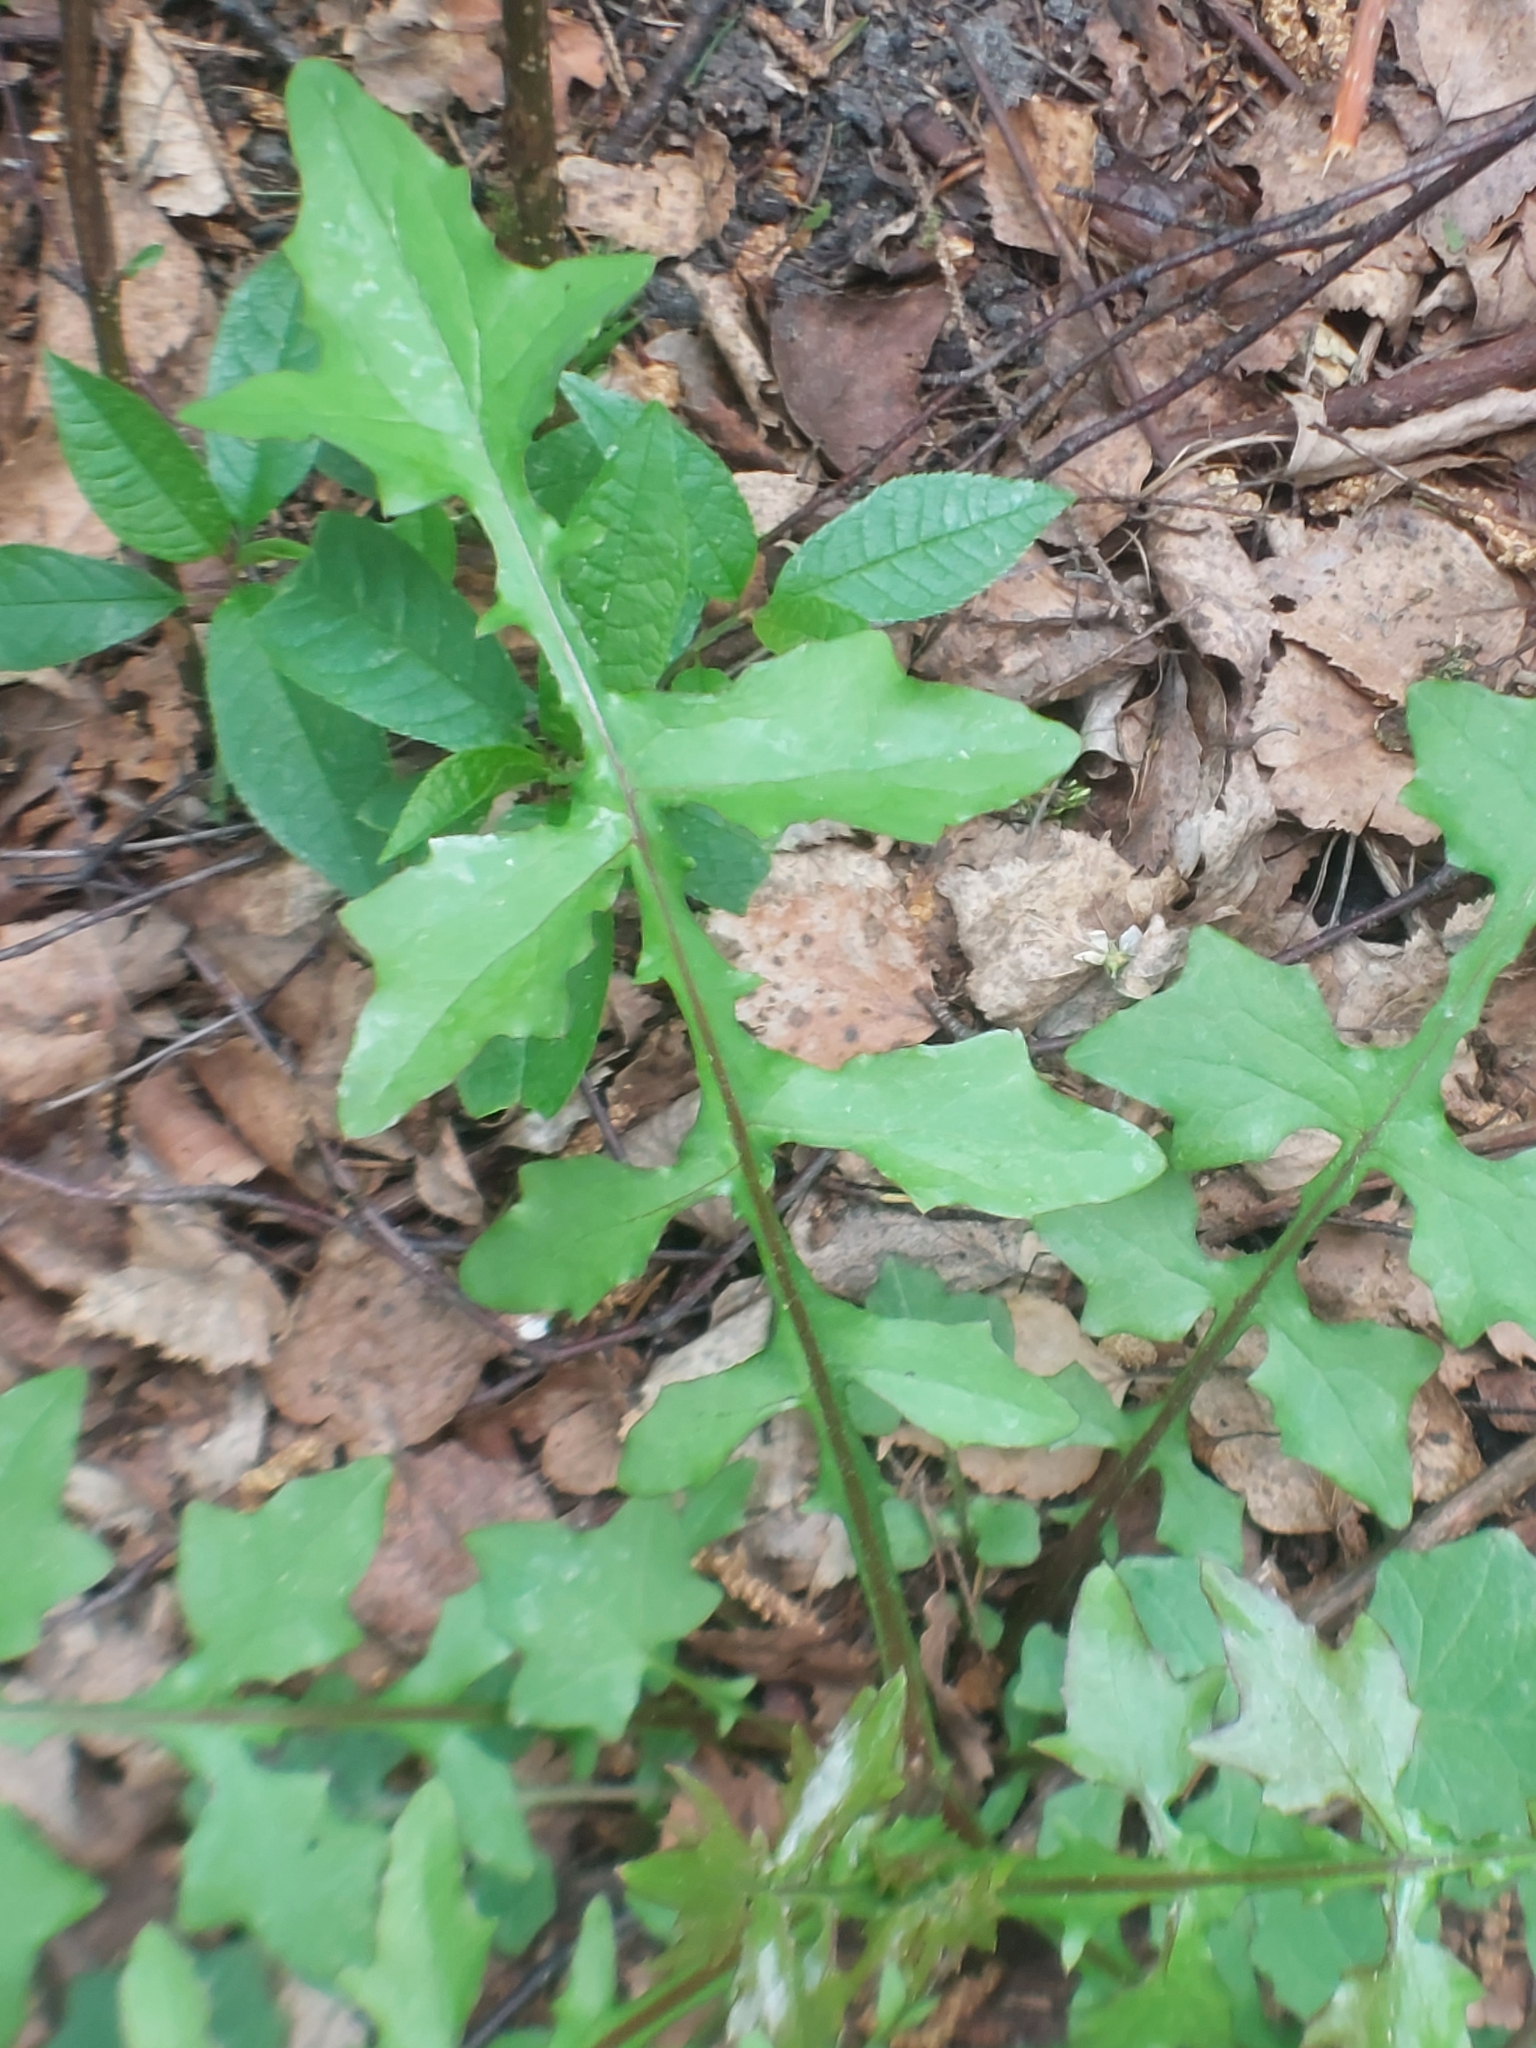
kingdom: Plantae
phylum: Tracheophyta
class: Magnoliopsida
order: Asterales
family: Asteraceae
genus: Mycelis
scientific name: Mycelis muralis
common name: Wall lettuce
